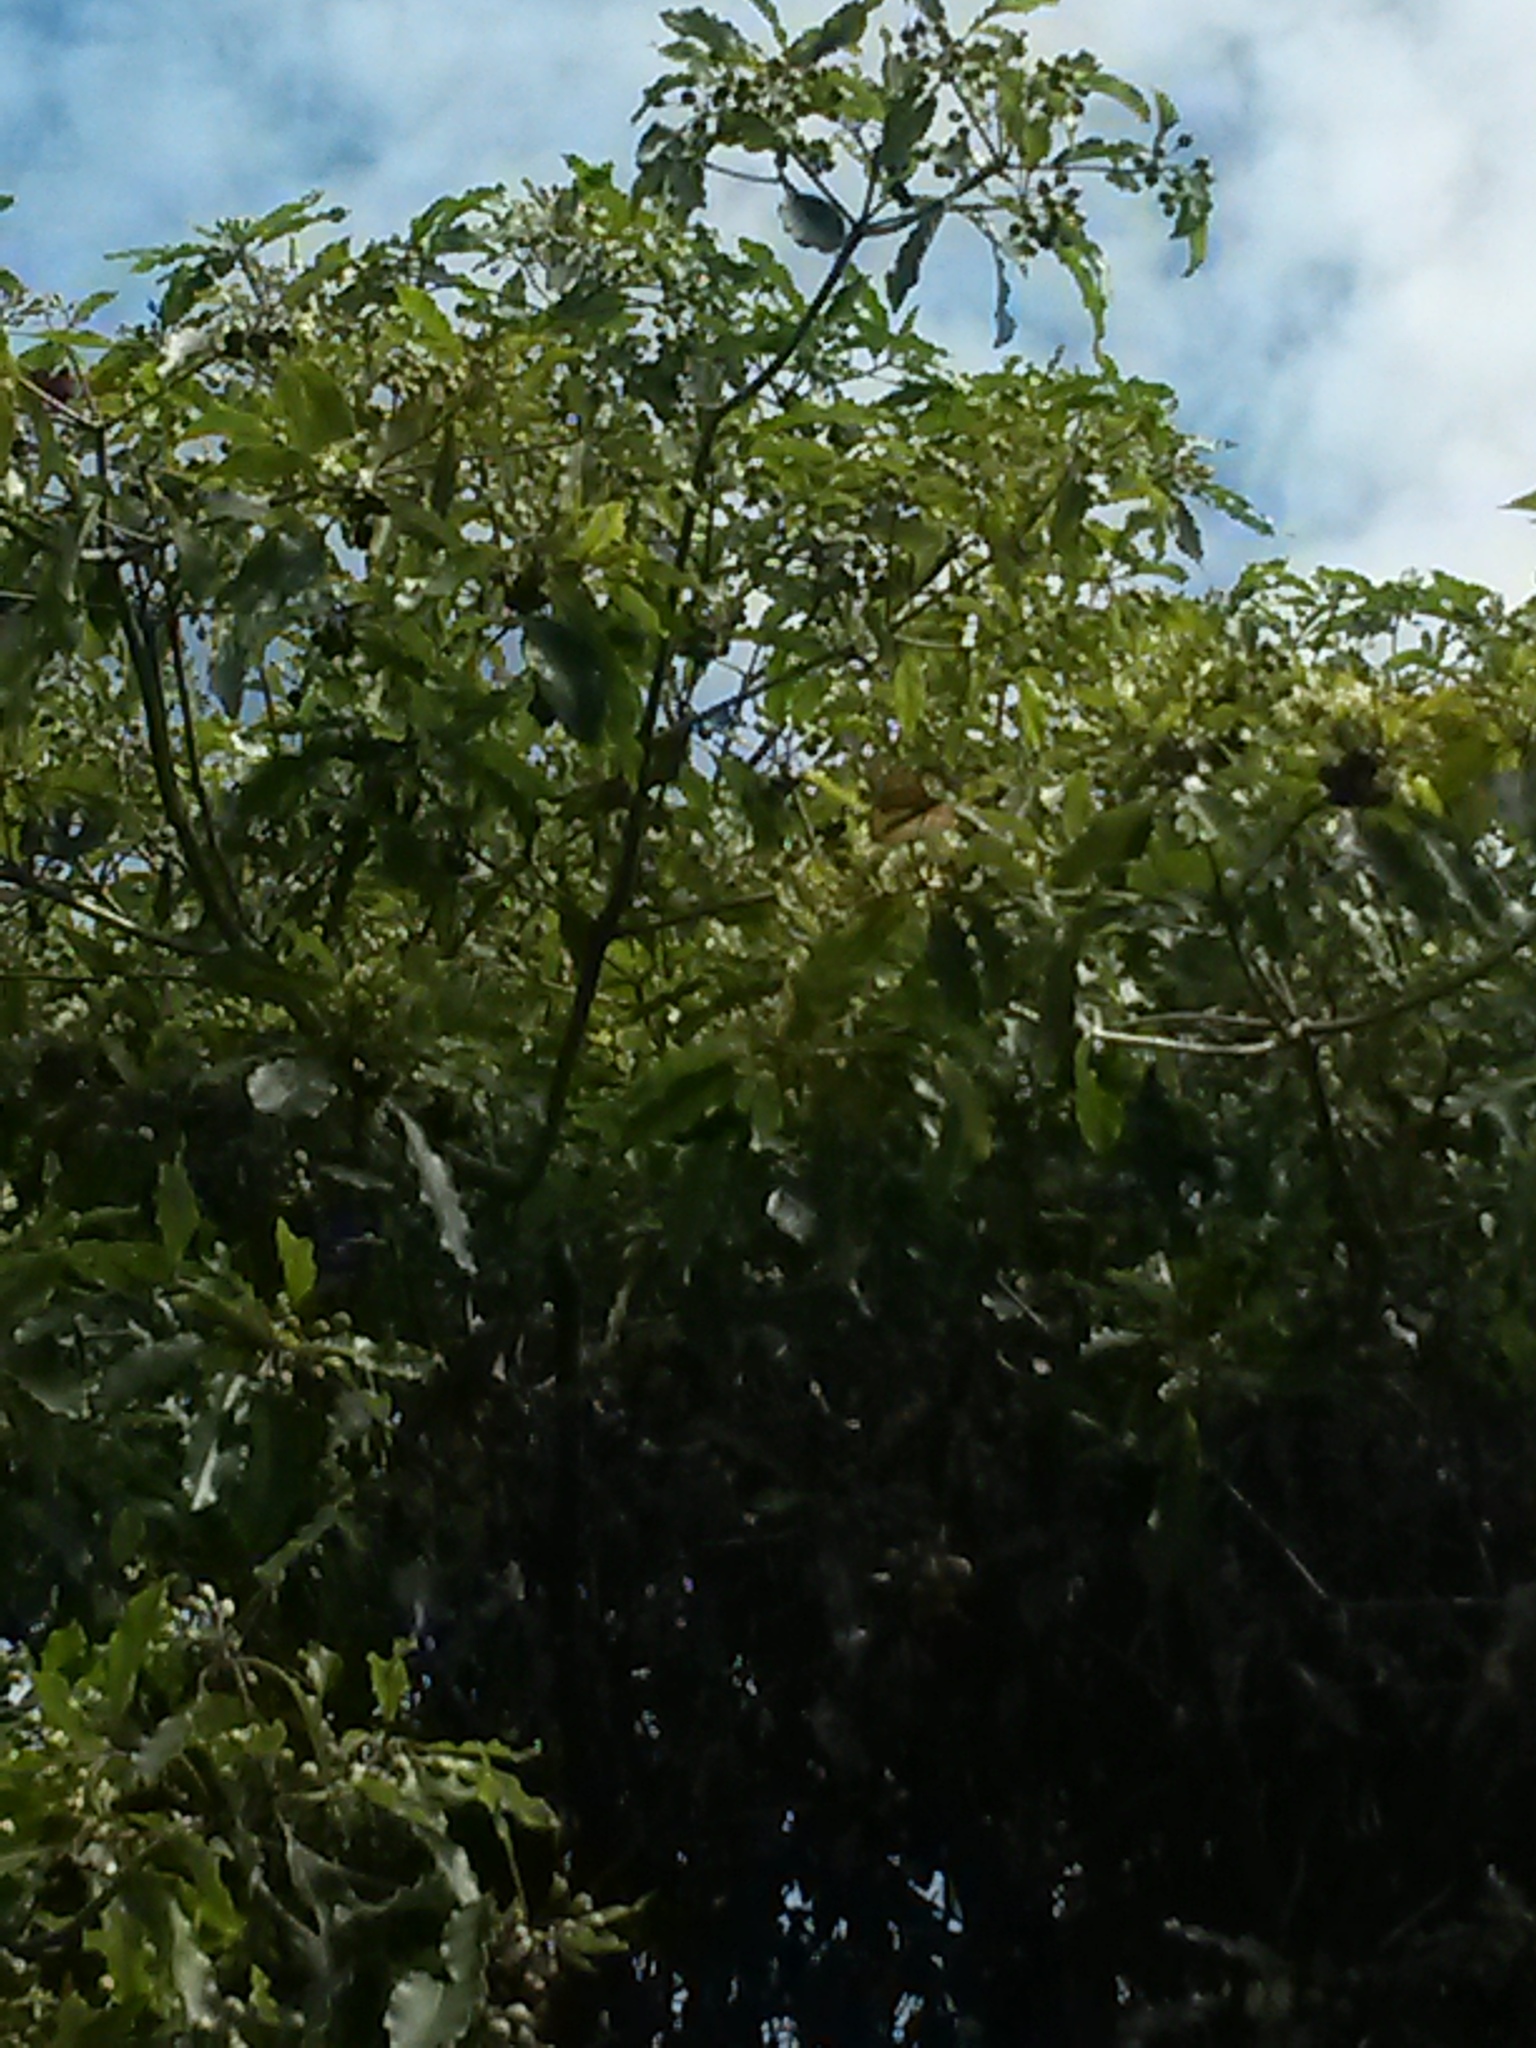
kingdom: Animalia
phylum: Arthropoda
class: Insecta
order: Lepidoptera
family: Nymphalidae
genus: Danaus
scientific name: Danaus plexippus
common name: Monarch
